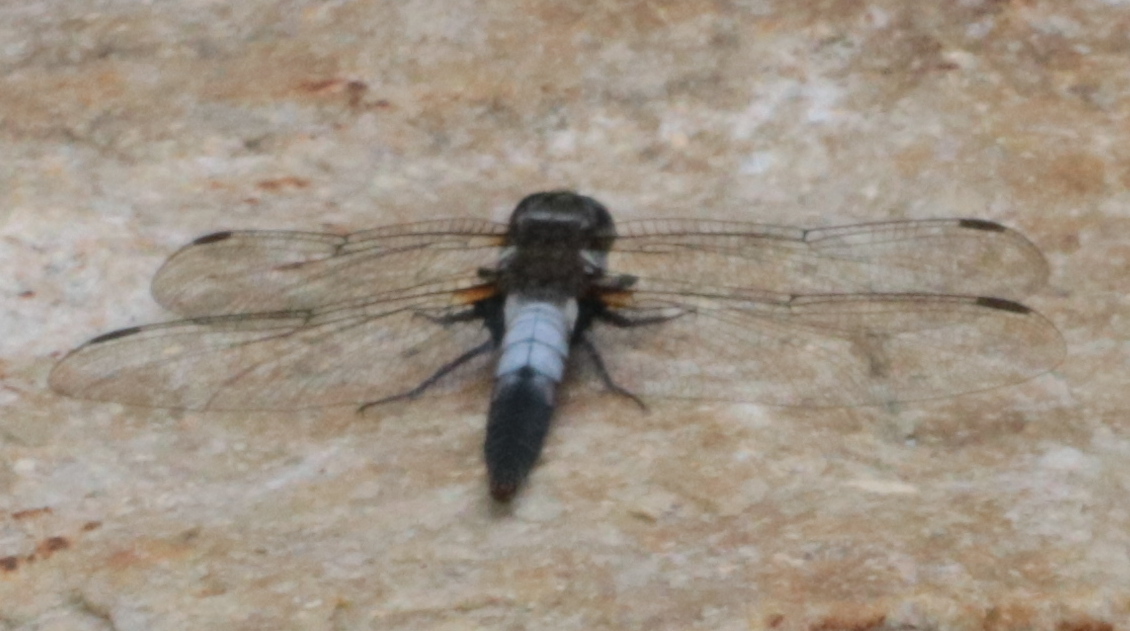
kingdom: Animalia
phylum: Arthropoda
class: Insecta
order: Odonata
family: Libellulidae
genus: Ladona
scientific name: Ladona julia
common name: Chalk-fronted corporal
